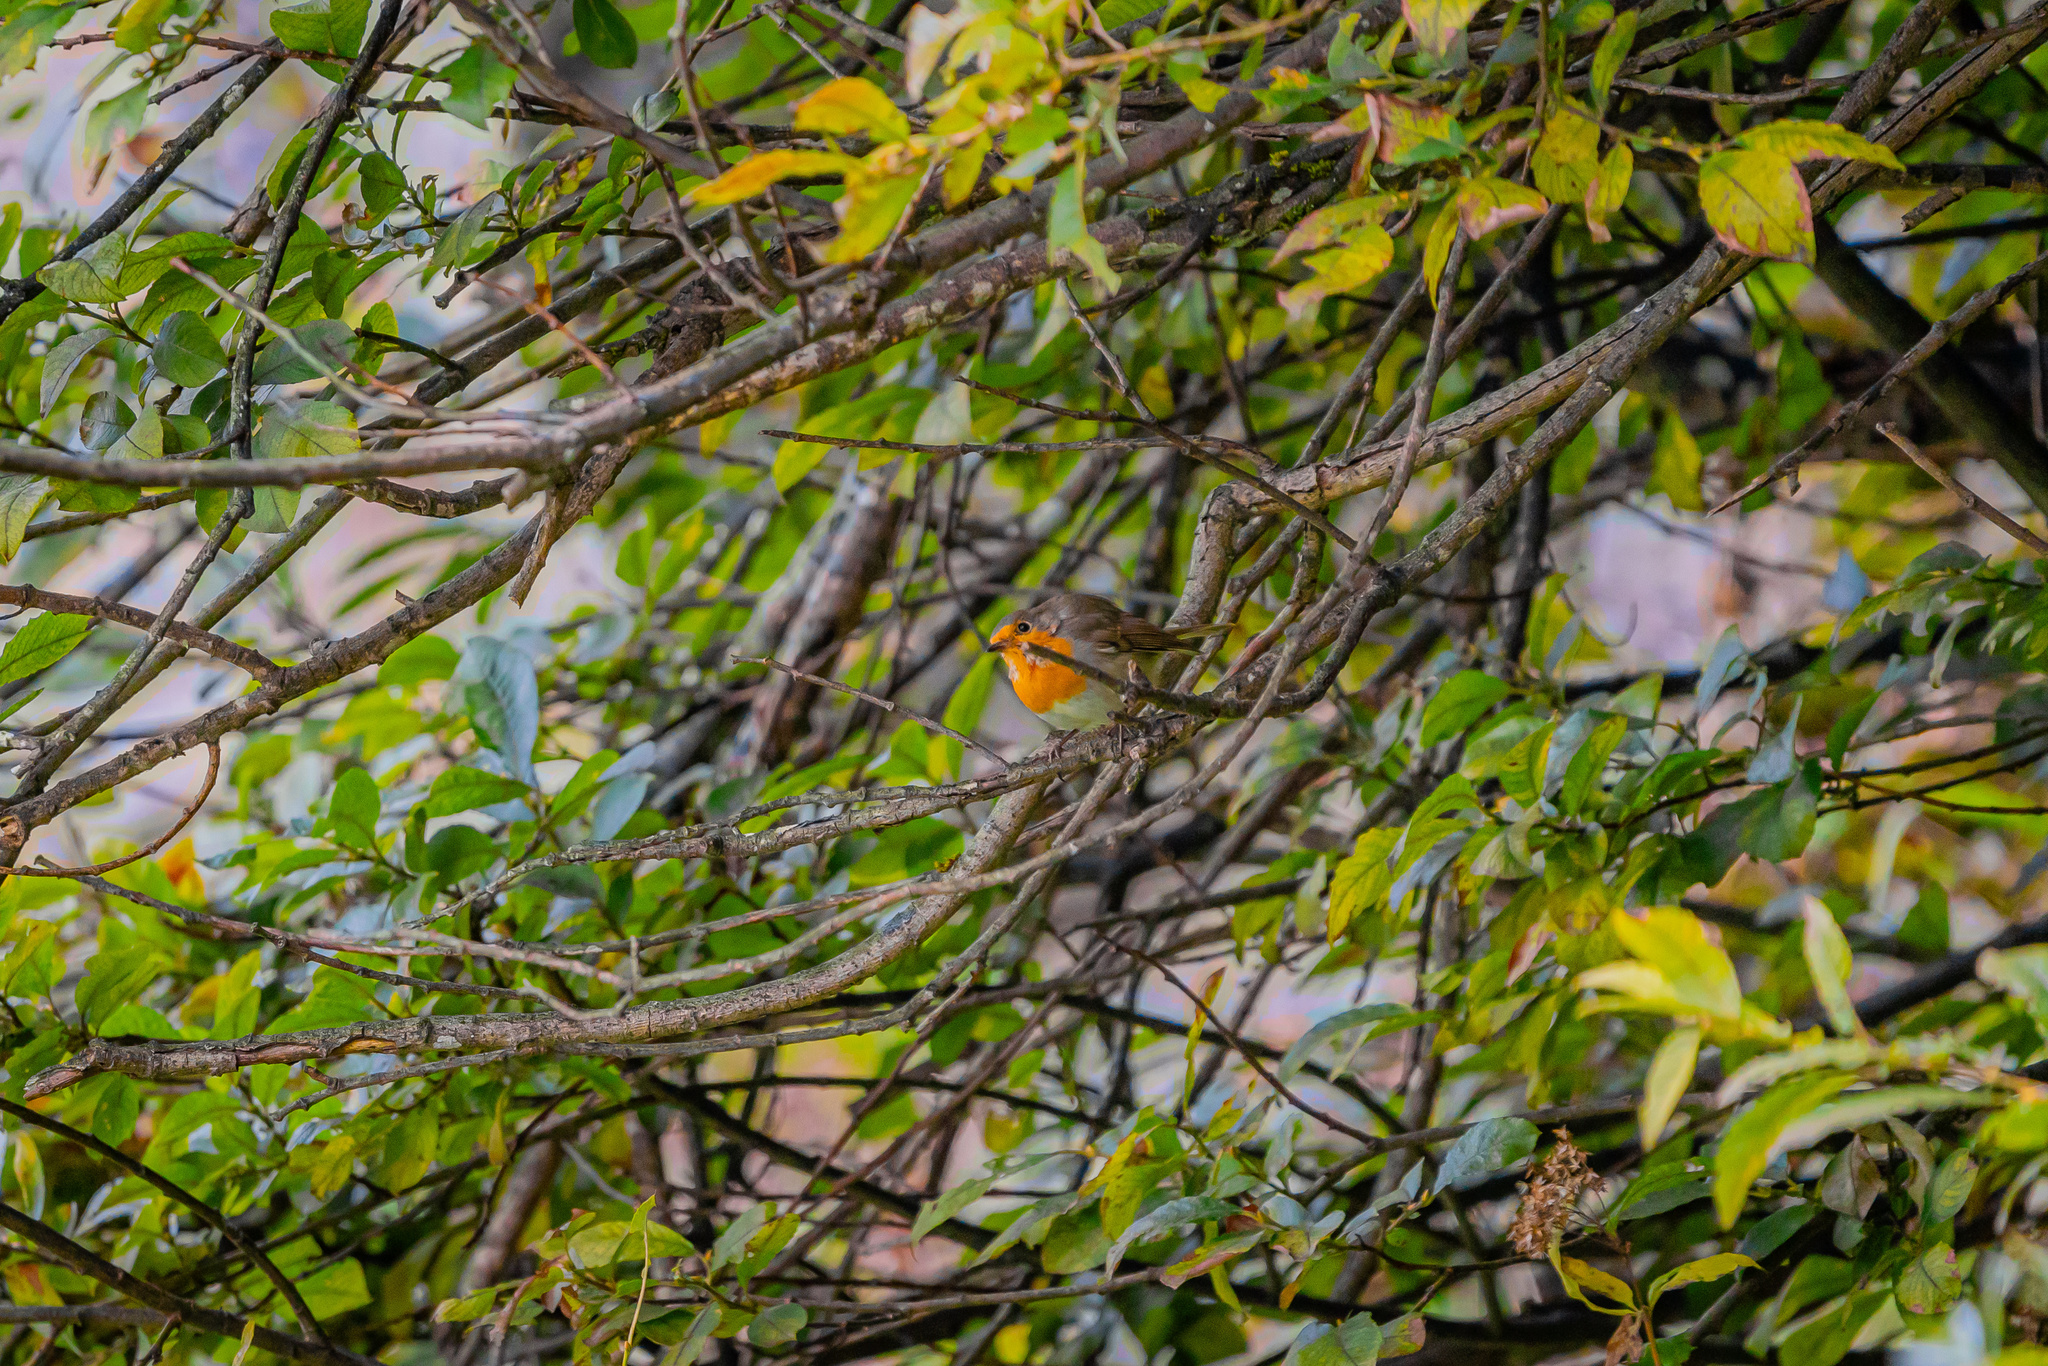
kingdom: Animalia
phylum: Chordata
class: Aves
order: Passeriformes
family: Muscicapidae
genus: Erithacus
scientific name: Erithacus rubecula
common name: European robin
